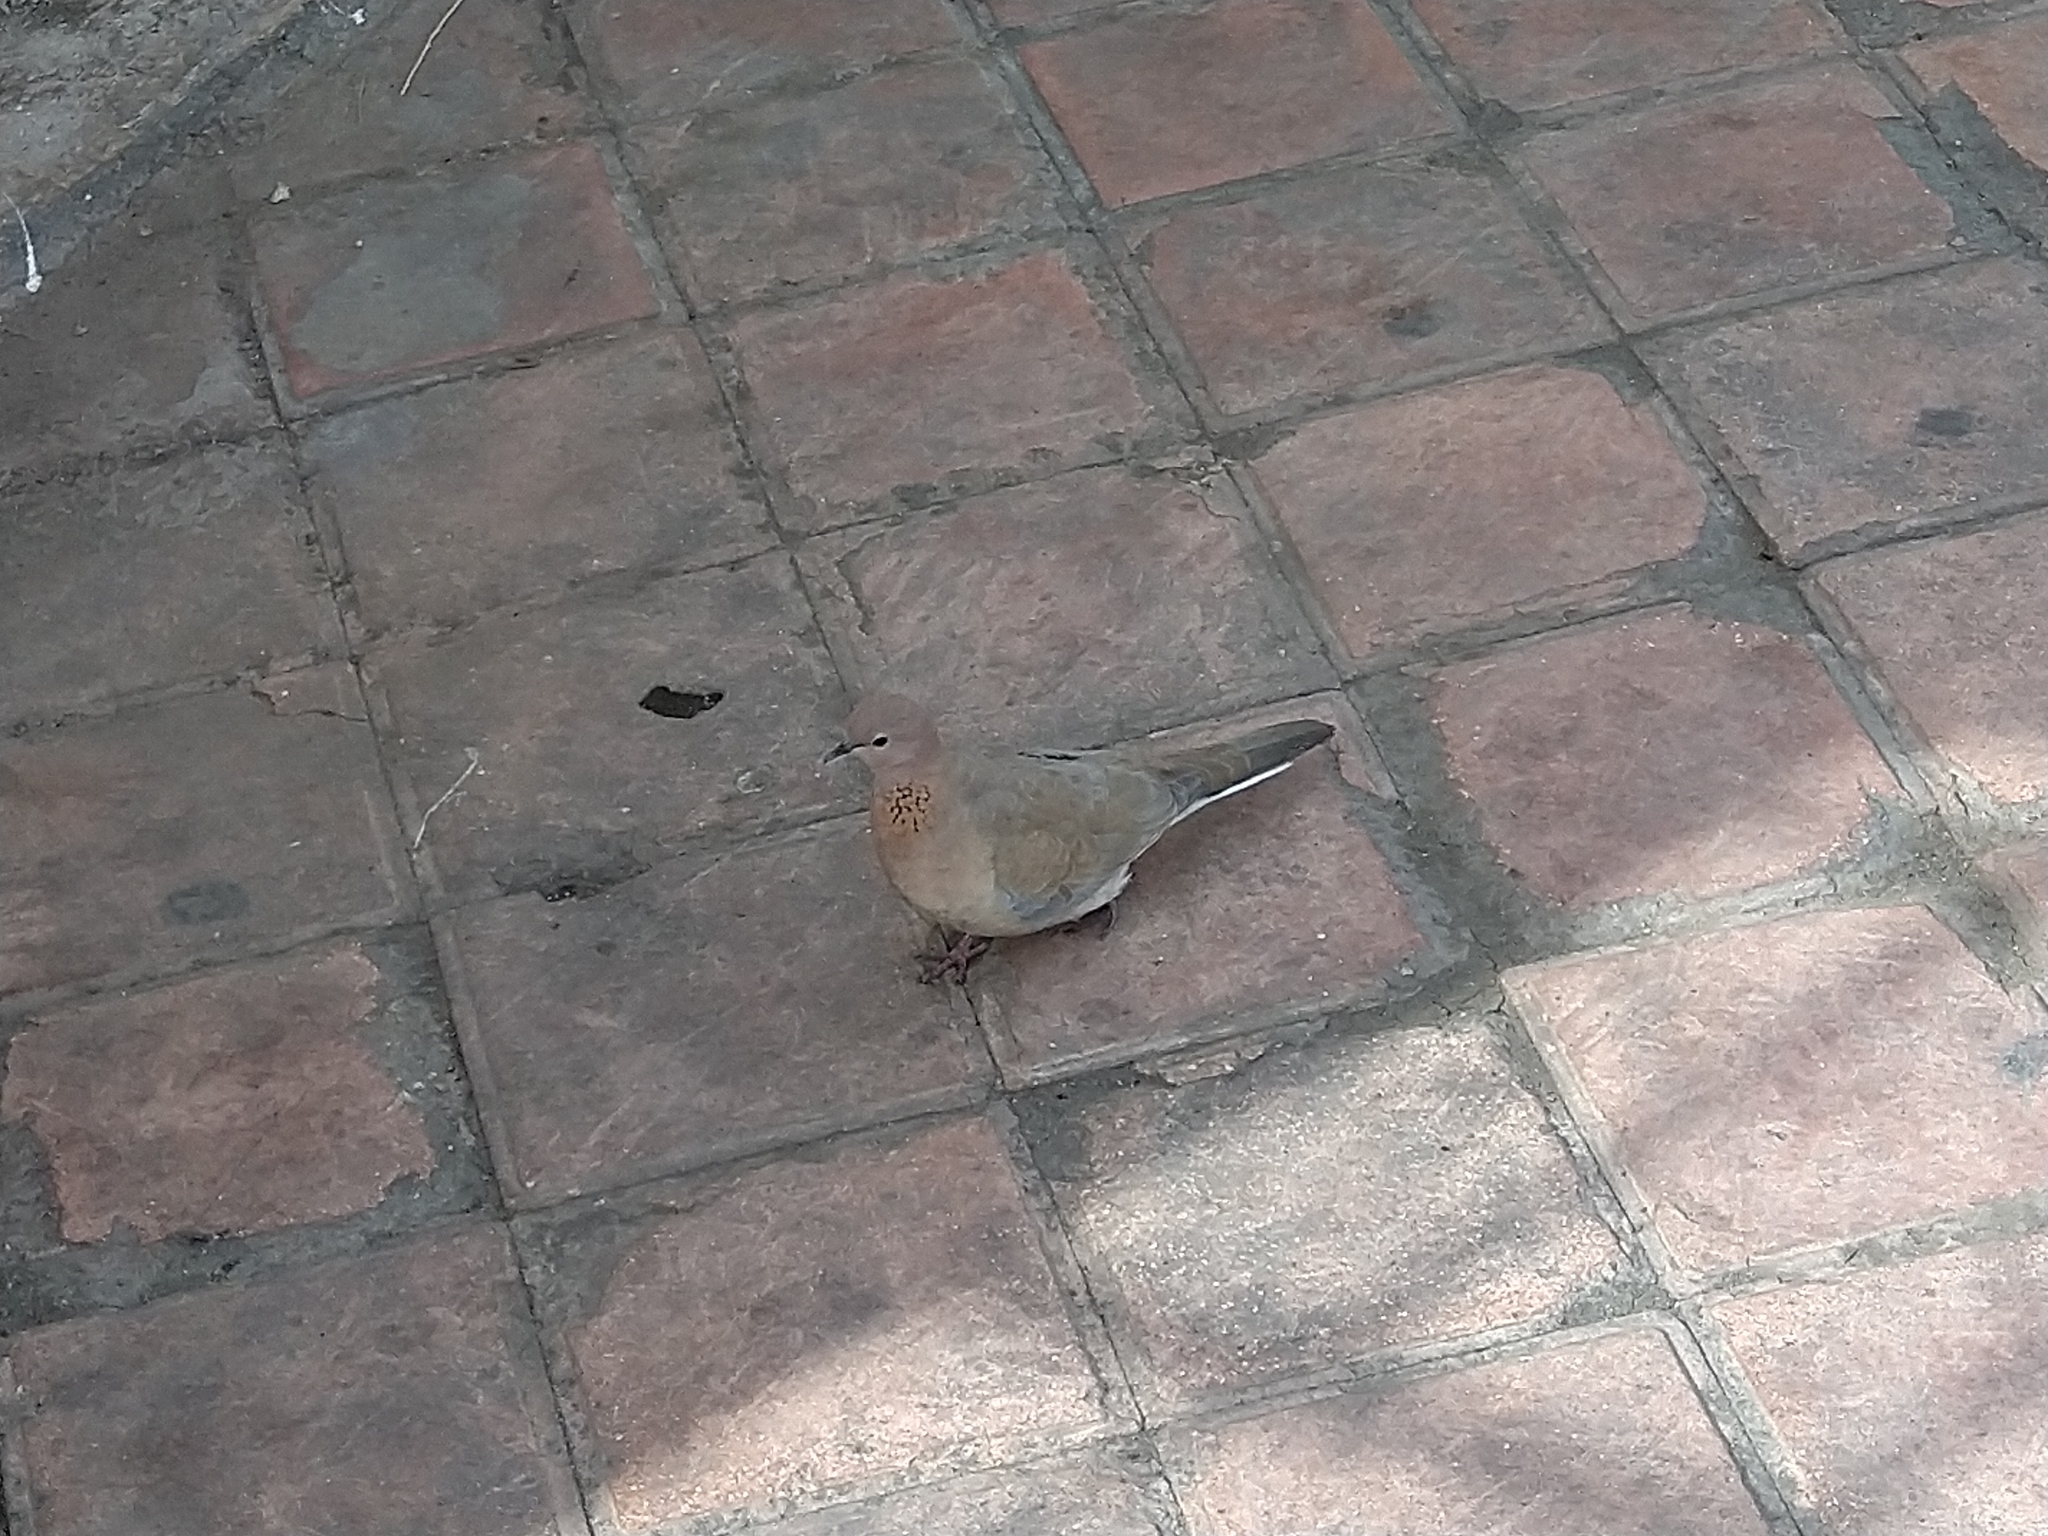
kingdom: Animalia
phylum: Chordata
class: Aves
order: Columbiformes
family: Columbidae
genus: Spilopelia
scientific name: Spilopelia senegalensis
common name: Laughing dove
